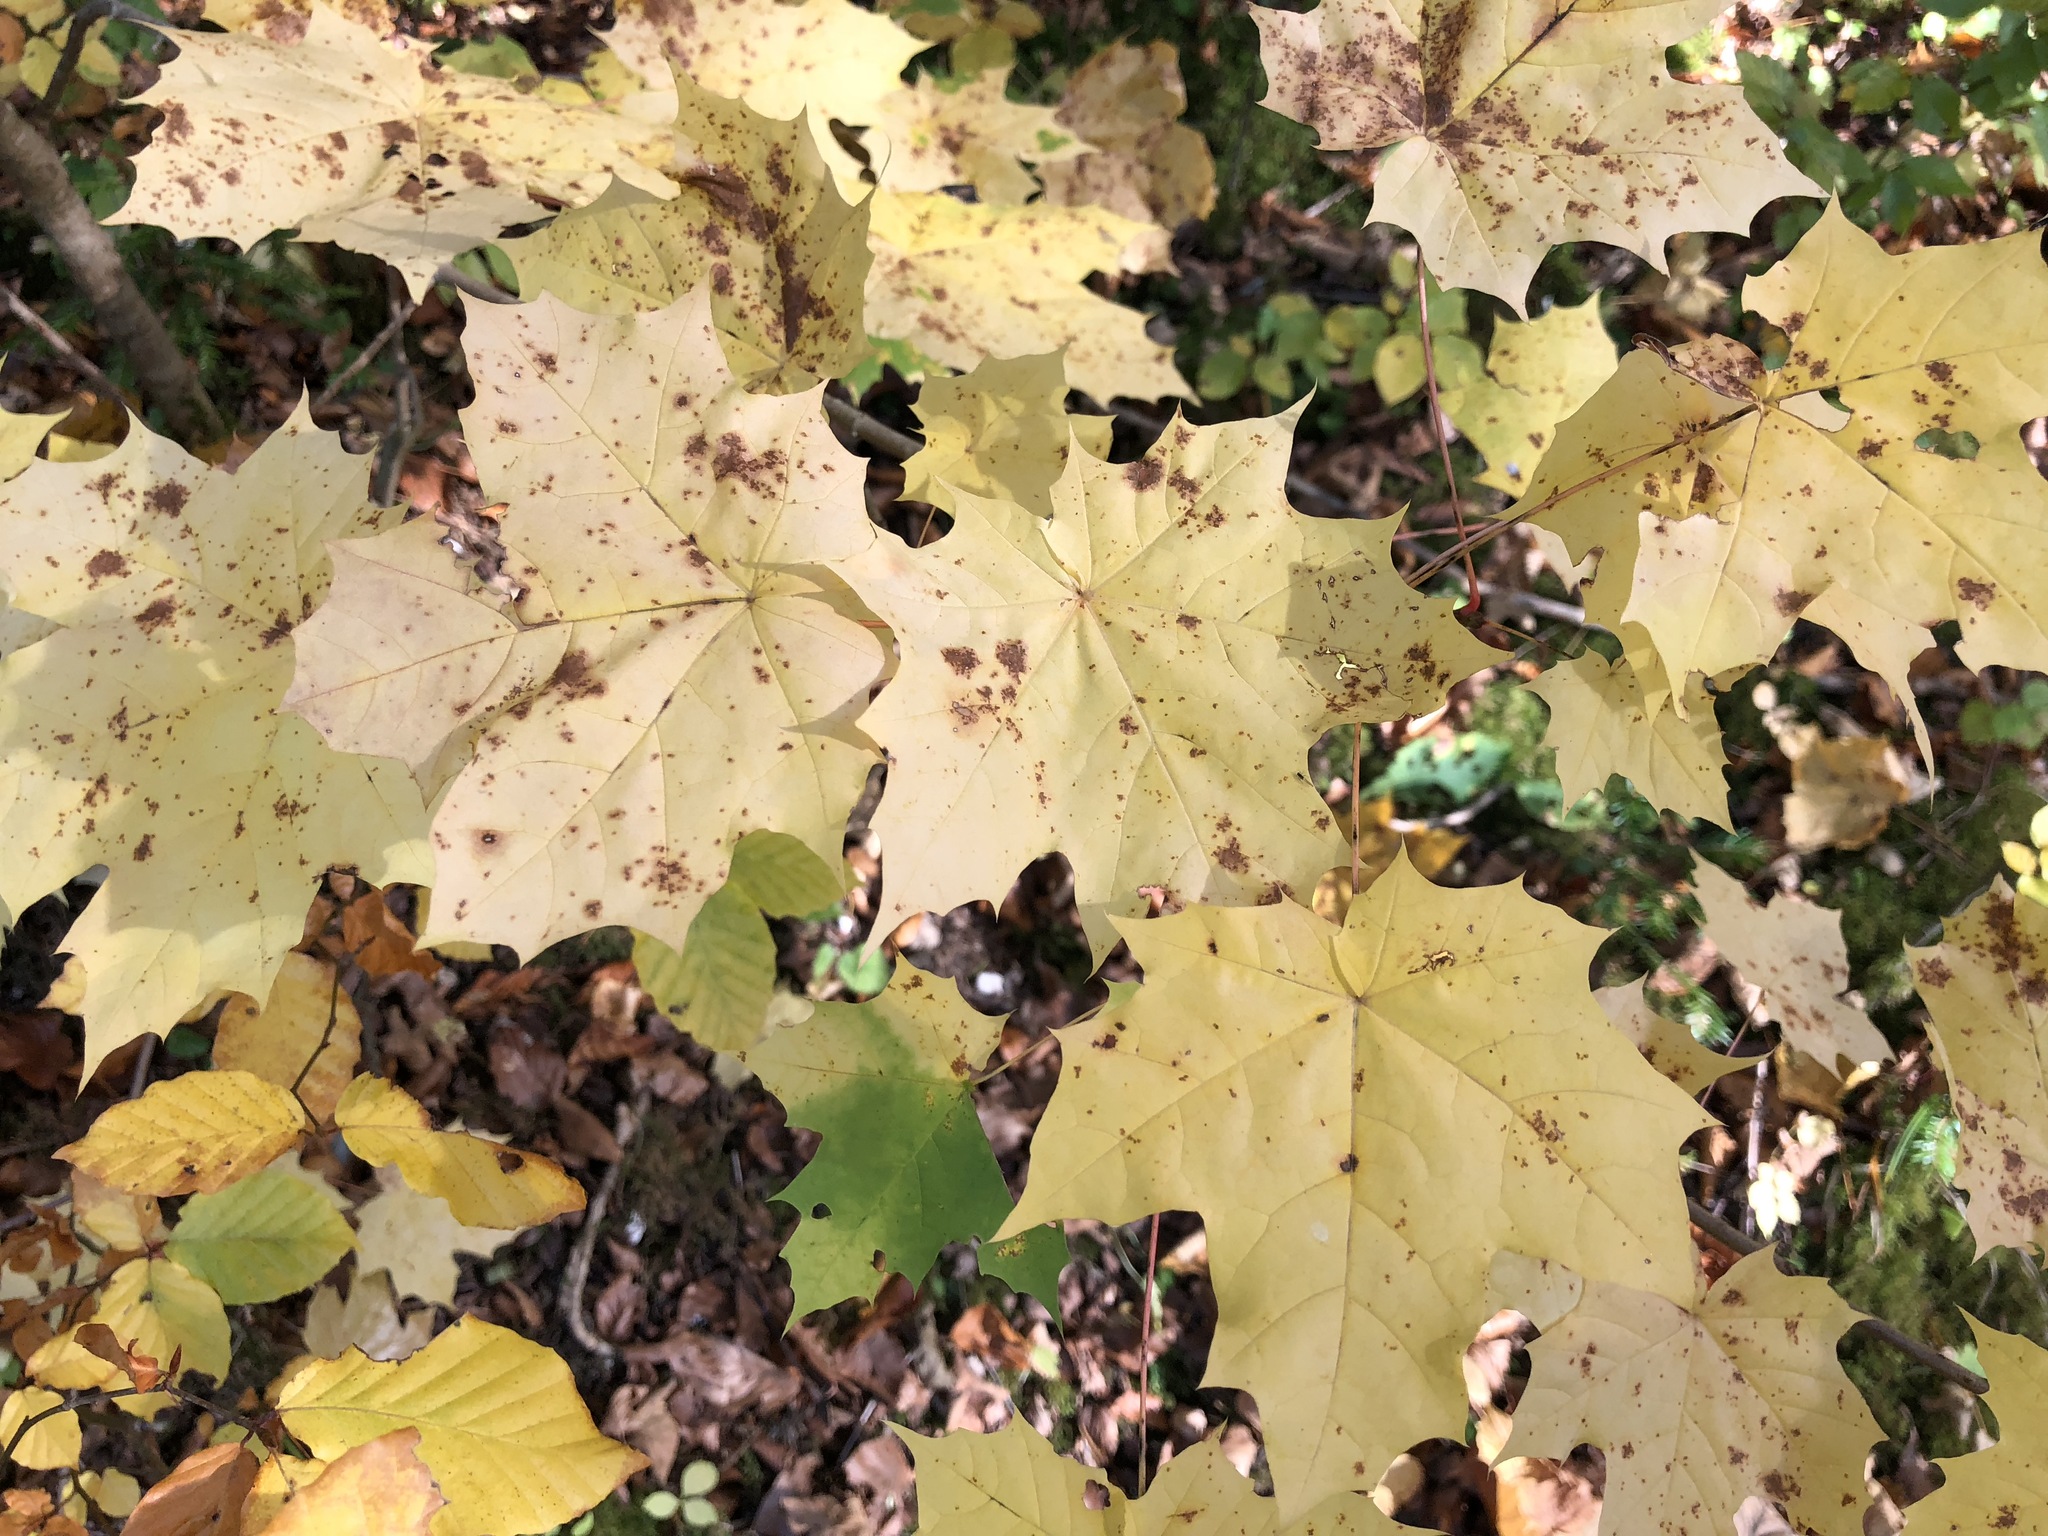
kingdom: Plantae
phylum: Tracheophyta
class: Magnoliopsida
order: Sapindales
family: Sapindaceae
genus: Acer
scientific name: Acer platanoides
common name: Norway maple
